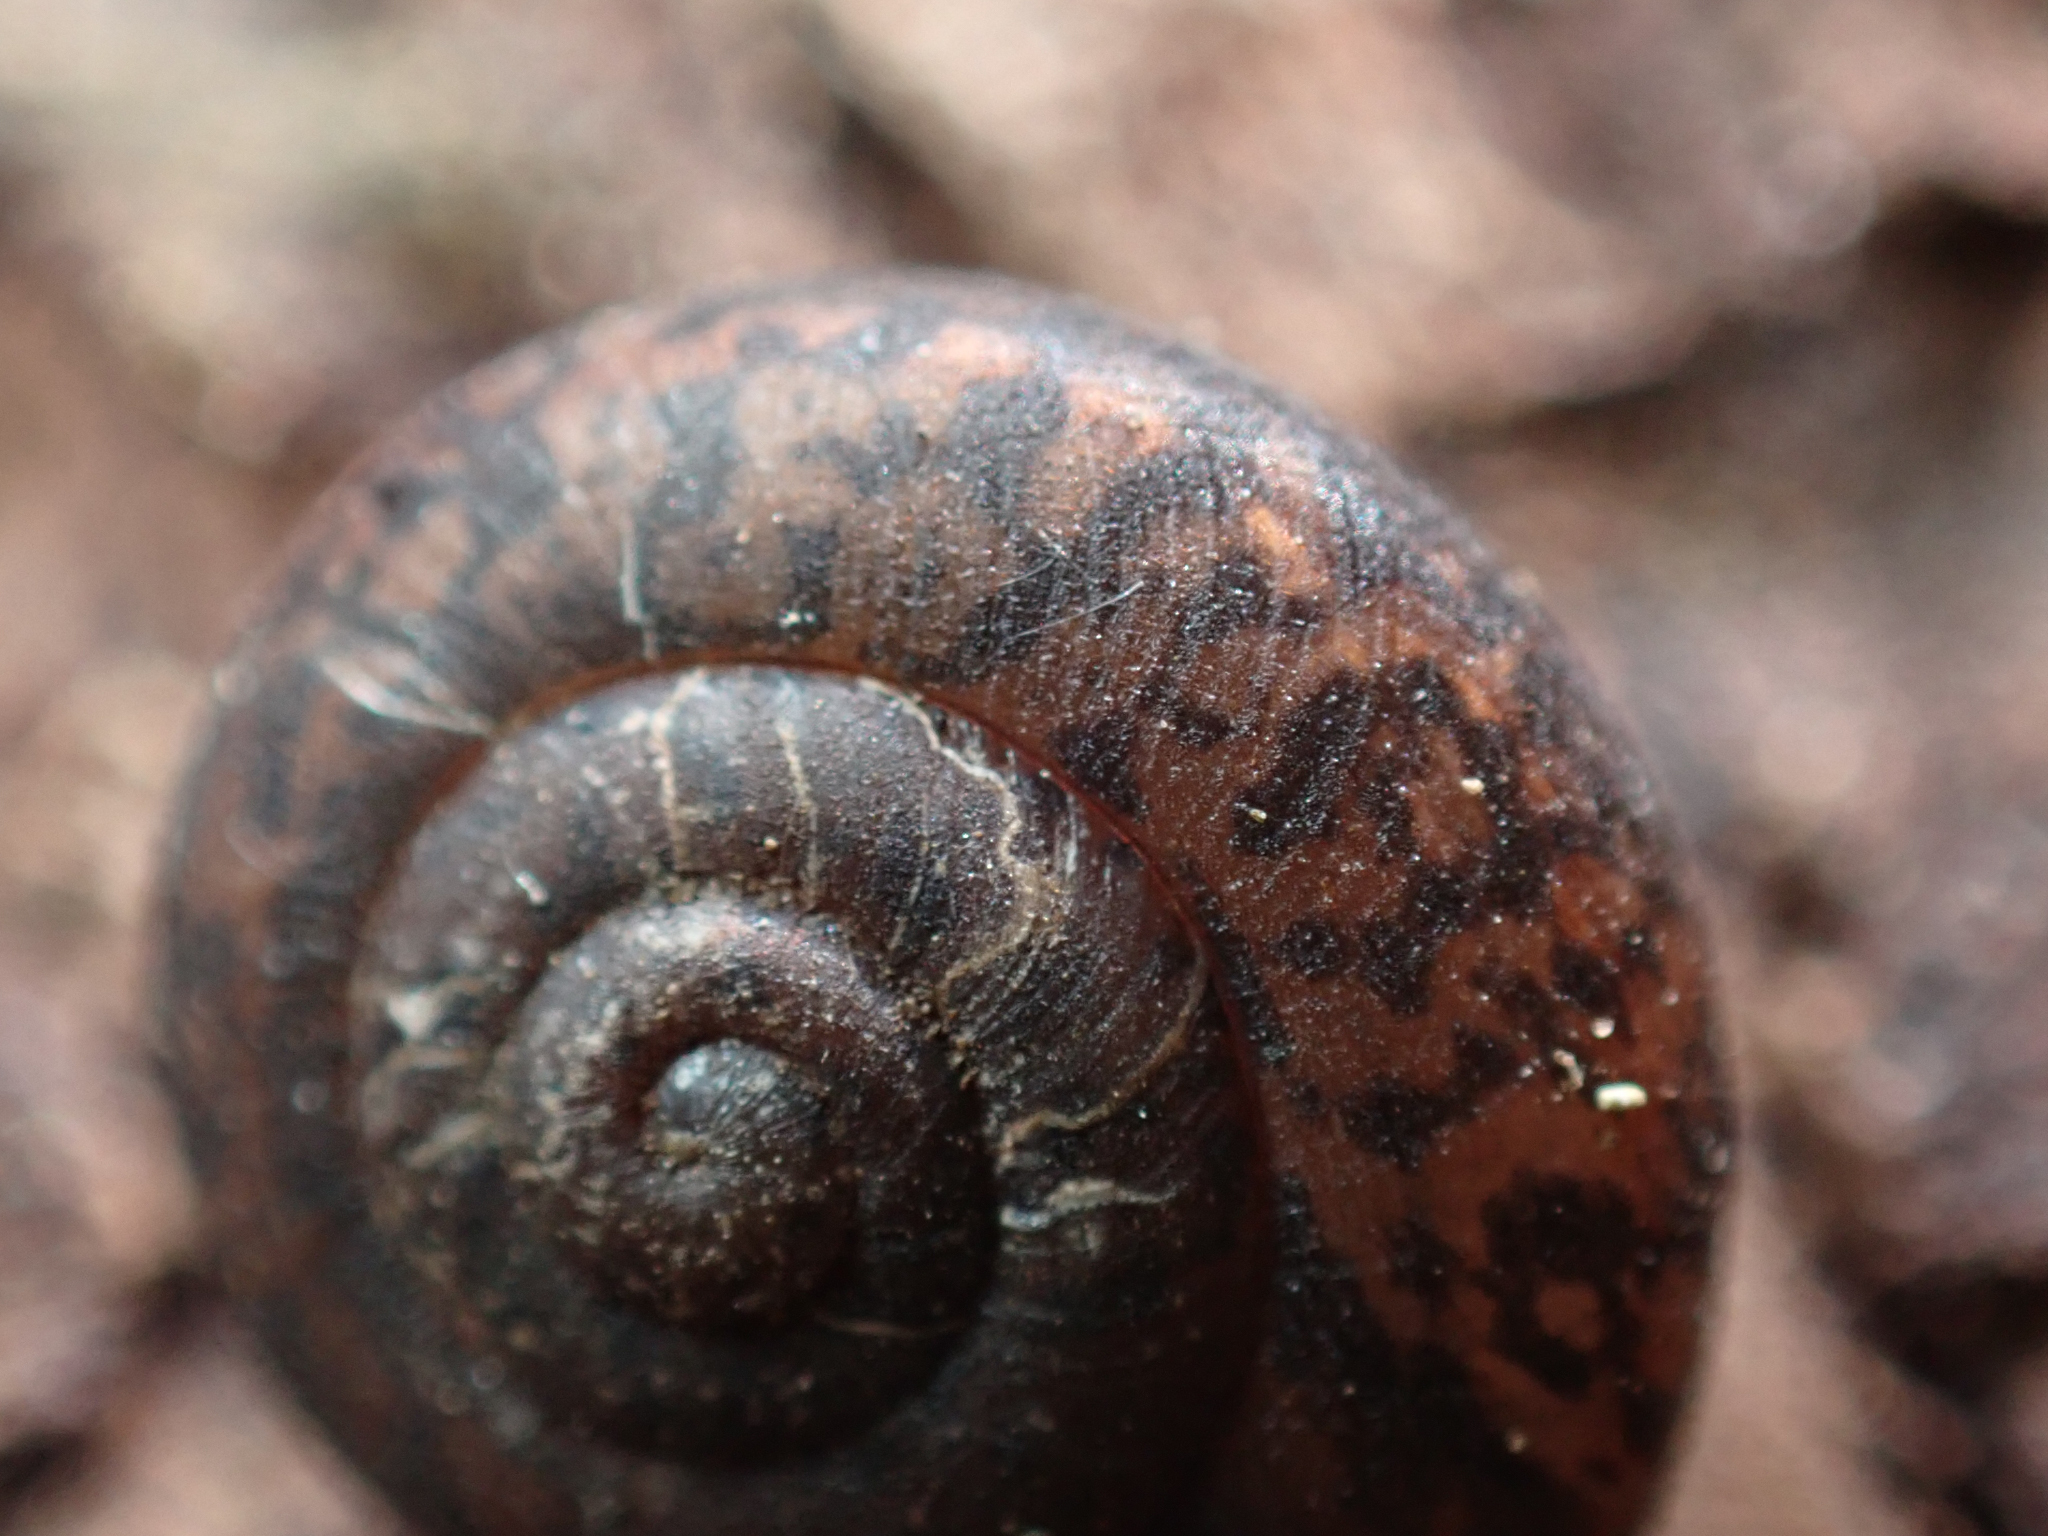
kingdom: Animalia
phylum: Mollusca
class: Gastropoda
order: Stylommatophora
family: Xanthonychidae
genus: Rothelix
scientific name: Rothelix cuyamacensis
